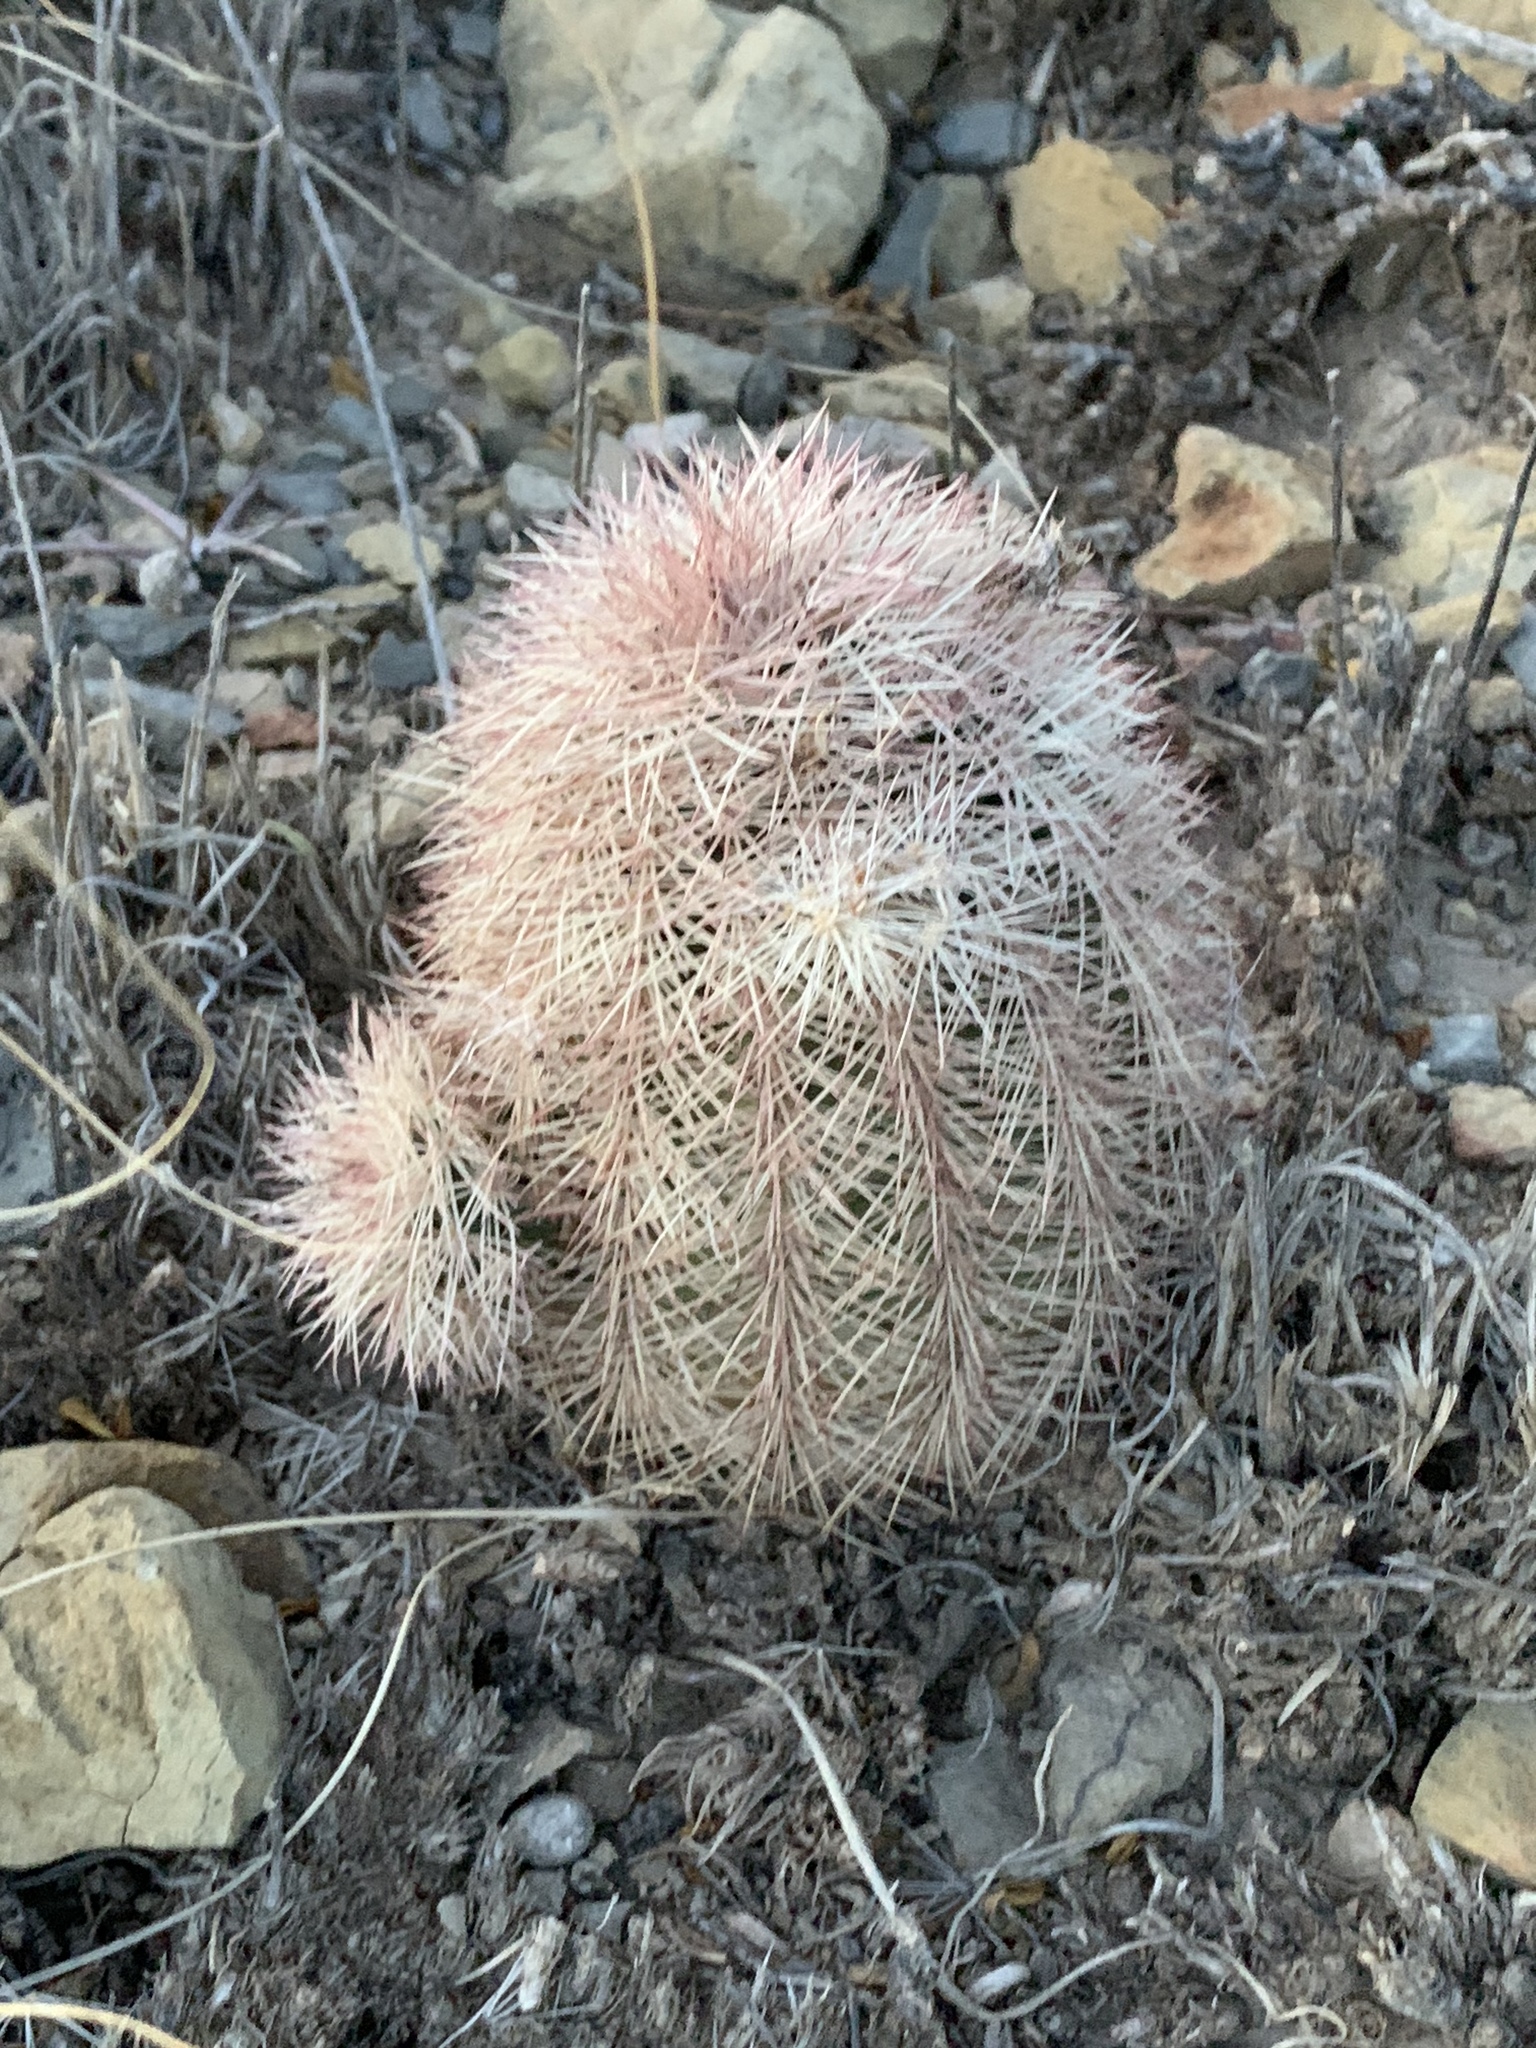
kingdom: Plantae
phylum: Tracheophyta
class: Magnoliopsida
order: Caryophyllales
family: Cactaceae
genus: Echinocereus
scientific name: Echinocereus dasyacanthus
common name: Spiny hedgehog cactus
